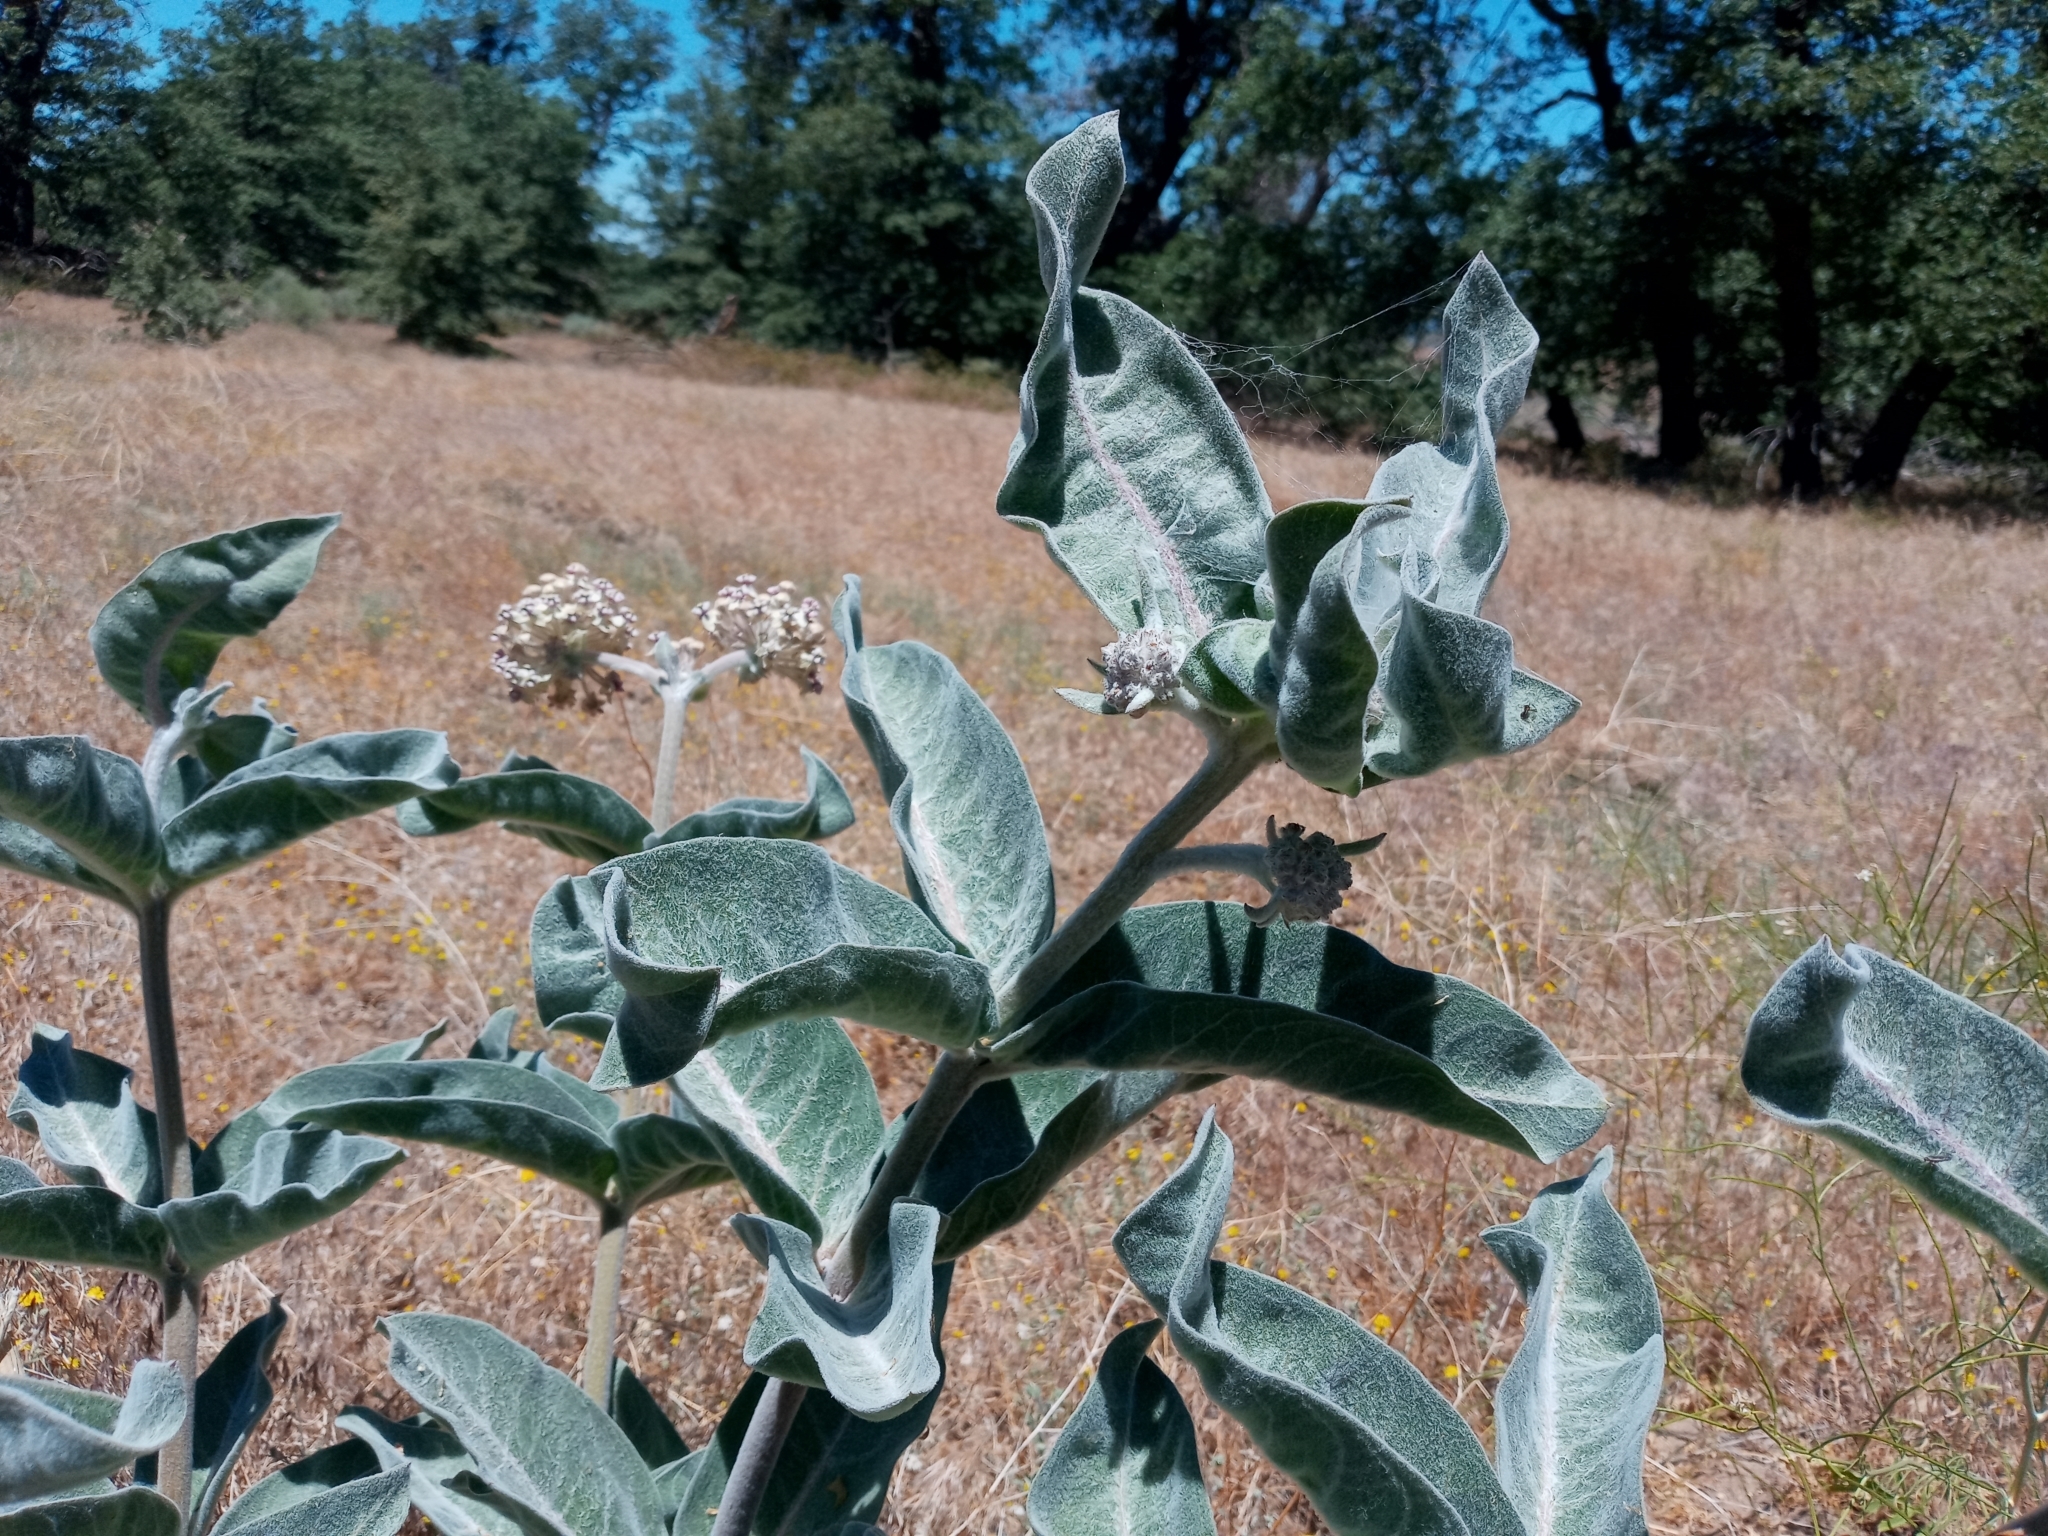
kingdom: Plantae
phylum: Tracheophyta
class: Magnoliopsida
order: Gentianales
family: Apocynaceae
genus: Asclepias
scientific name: Asclepias eriocarpa
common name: Indian milkweed
